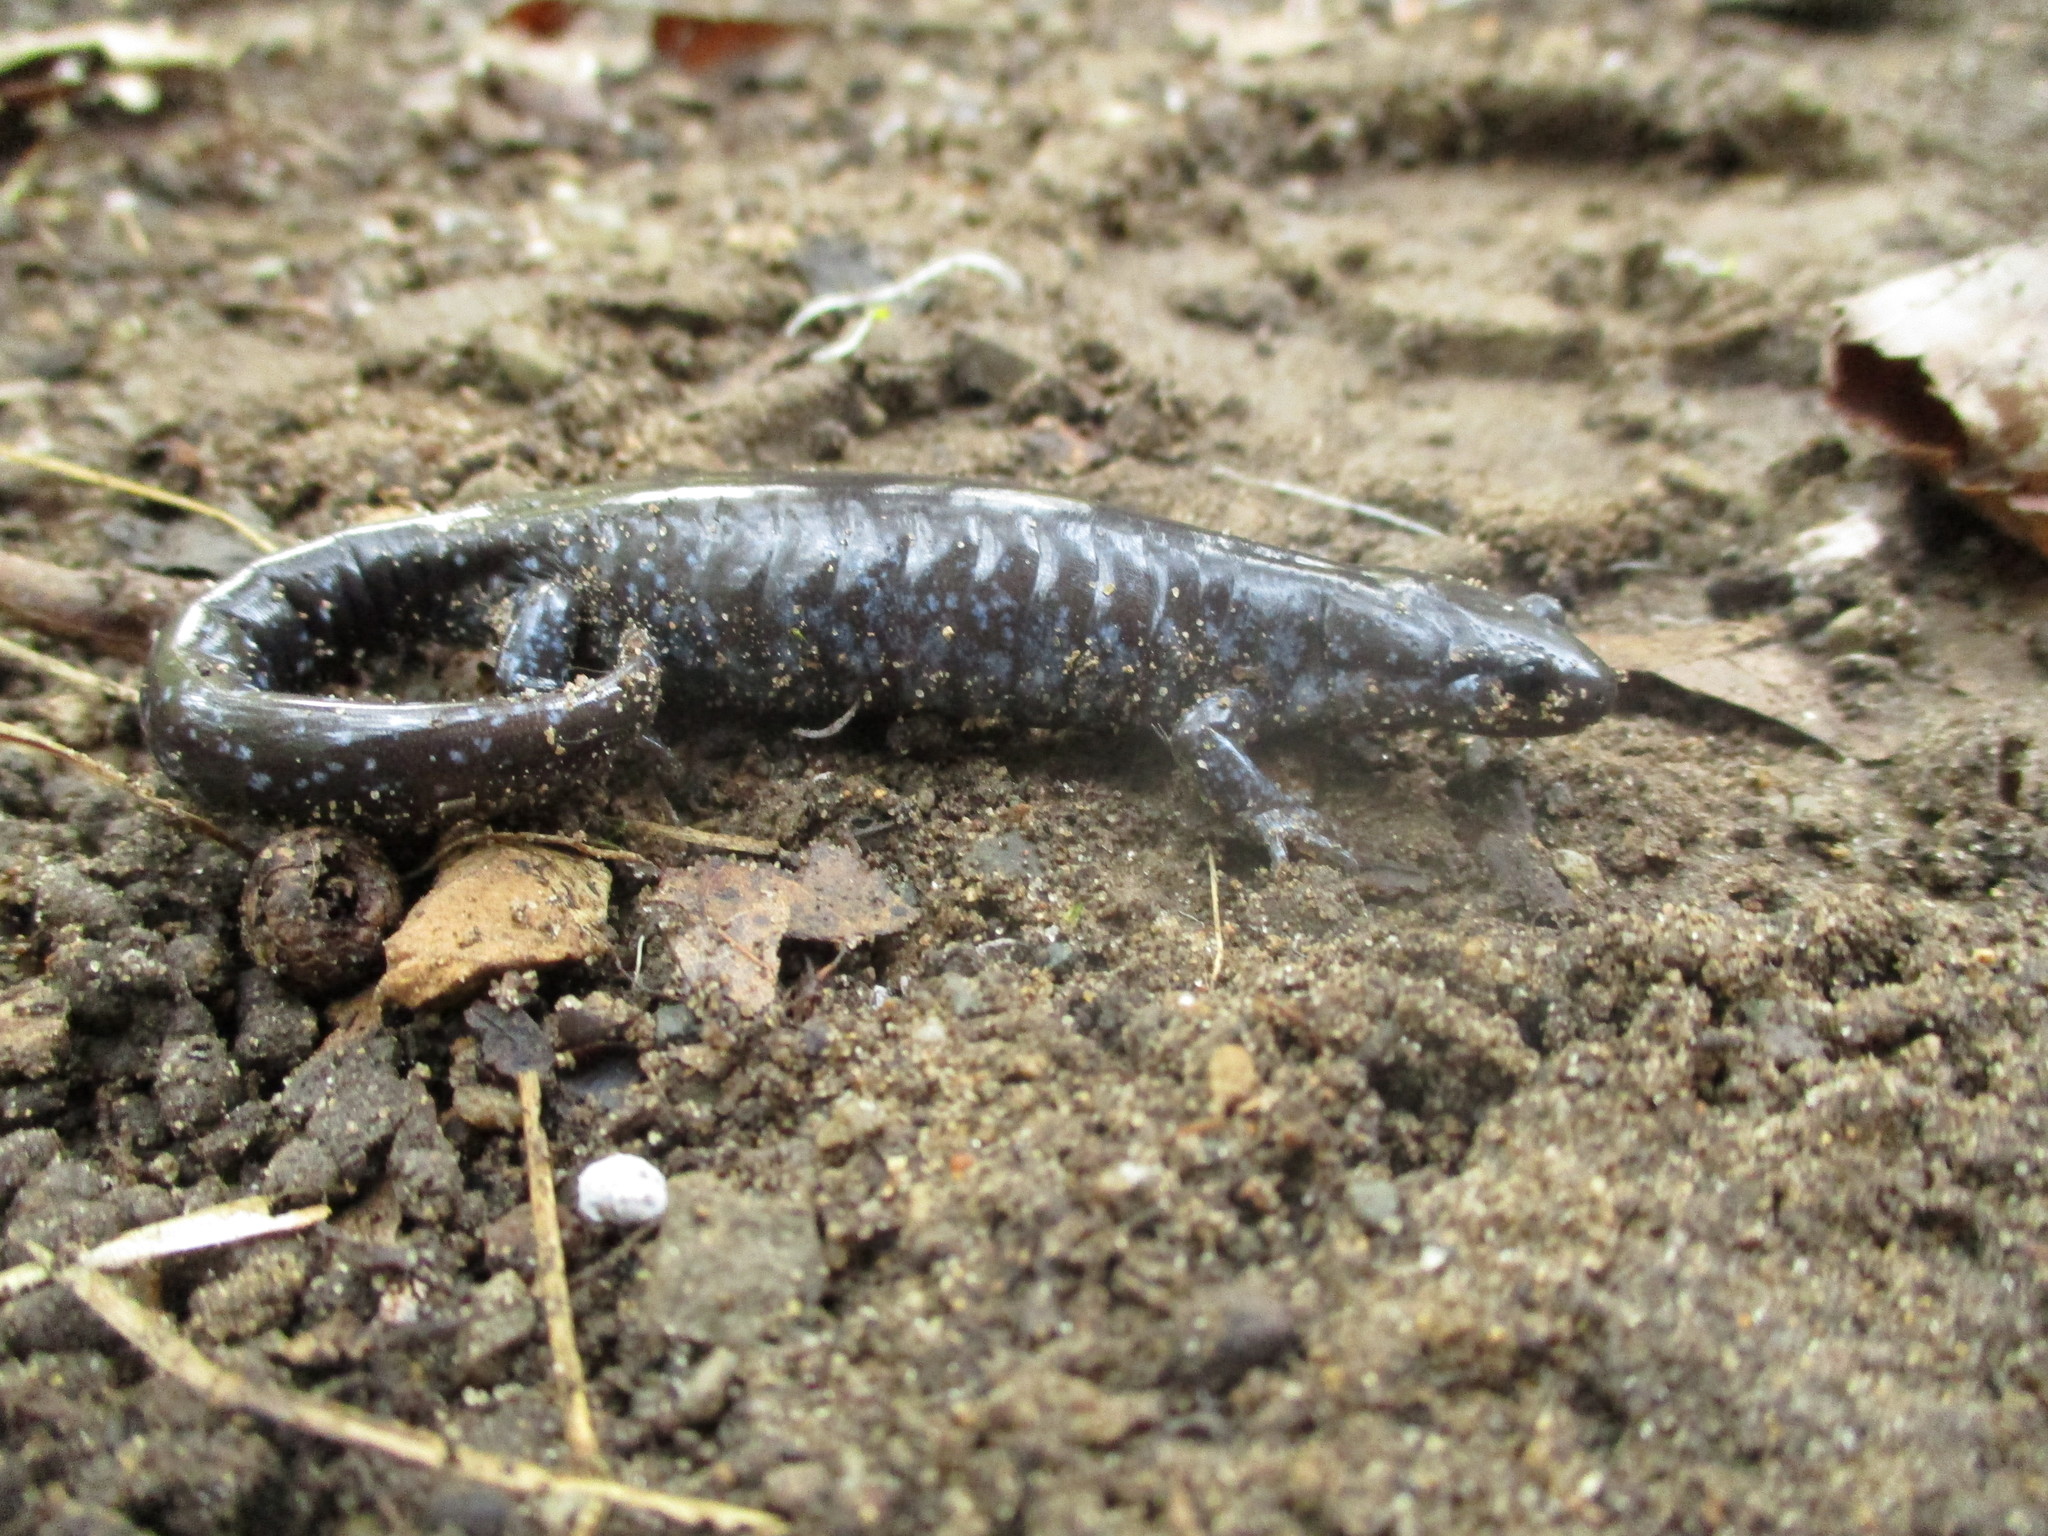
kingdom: Animalia
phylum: Chordata
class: Amphibia
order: Caudata
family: Ambystomatidae
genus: Ambystoma
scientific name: Ambystoma unisexual
